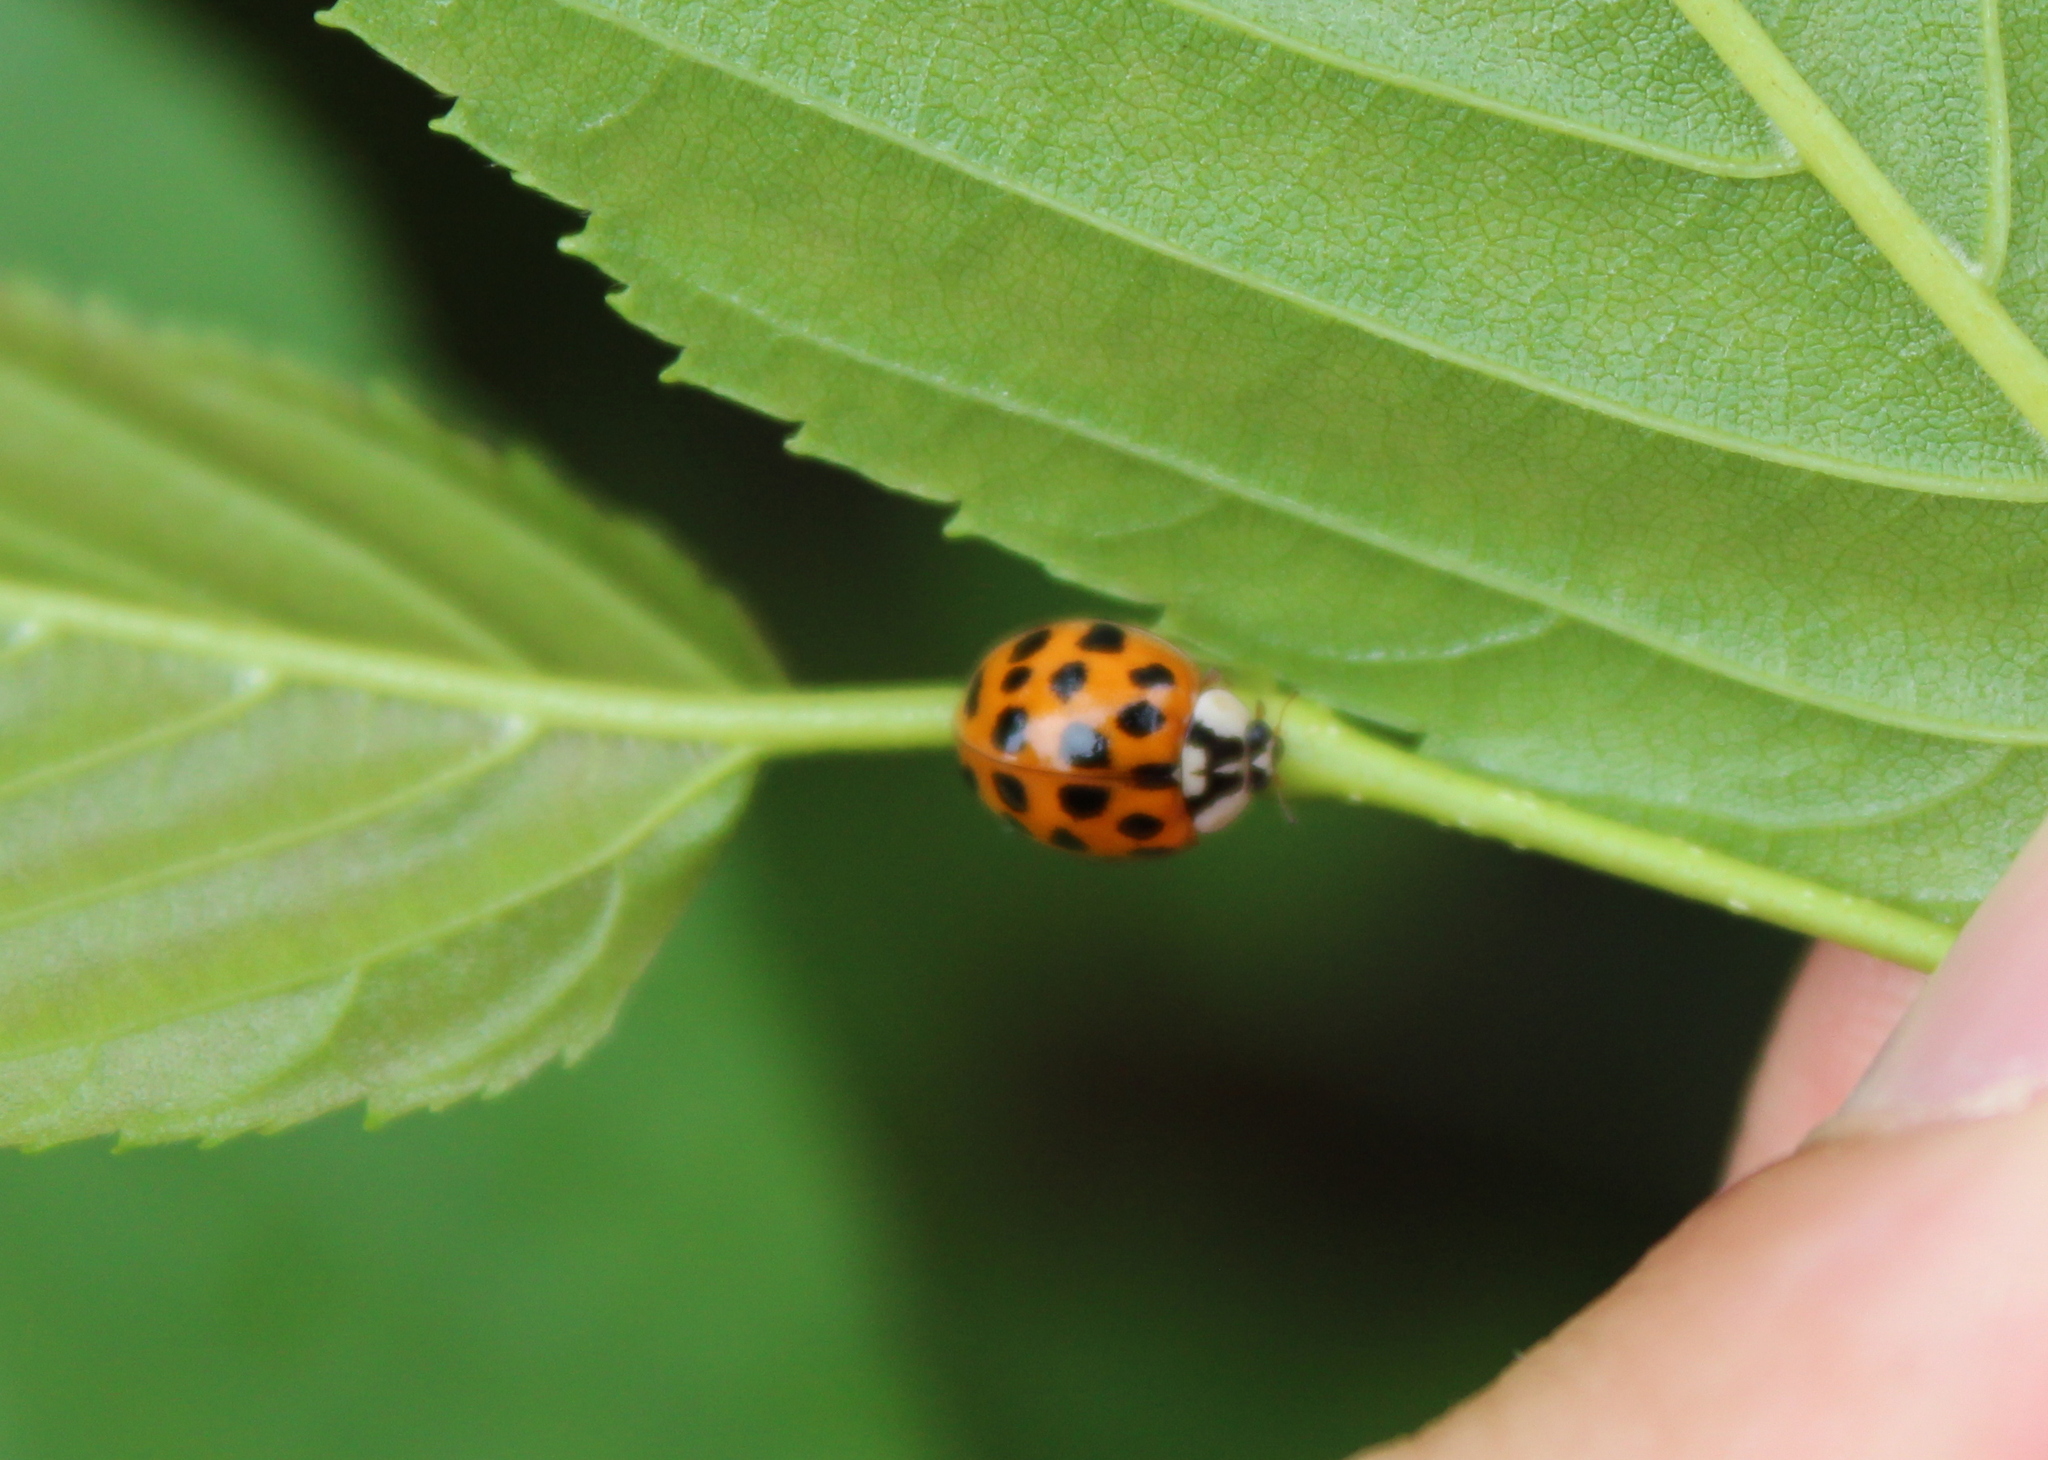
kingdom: Animalia
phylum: Arthropoda
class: Insecta
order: Coleoptera
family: Coccinellidae
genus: Harmonia
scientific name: Harmonia axyridis
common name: Harlequin ladybird
